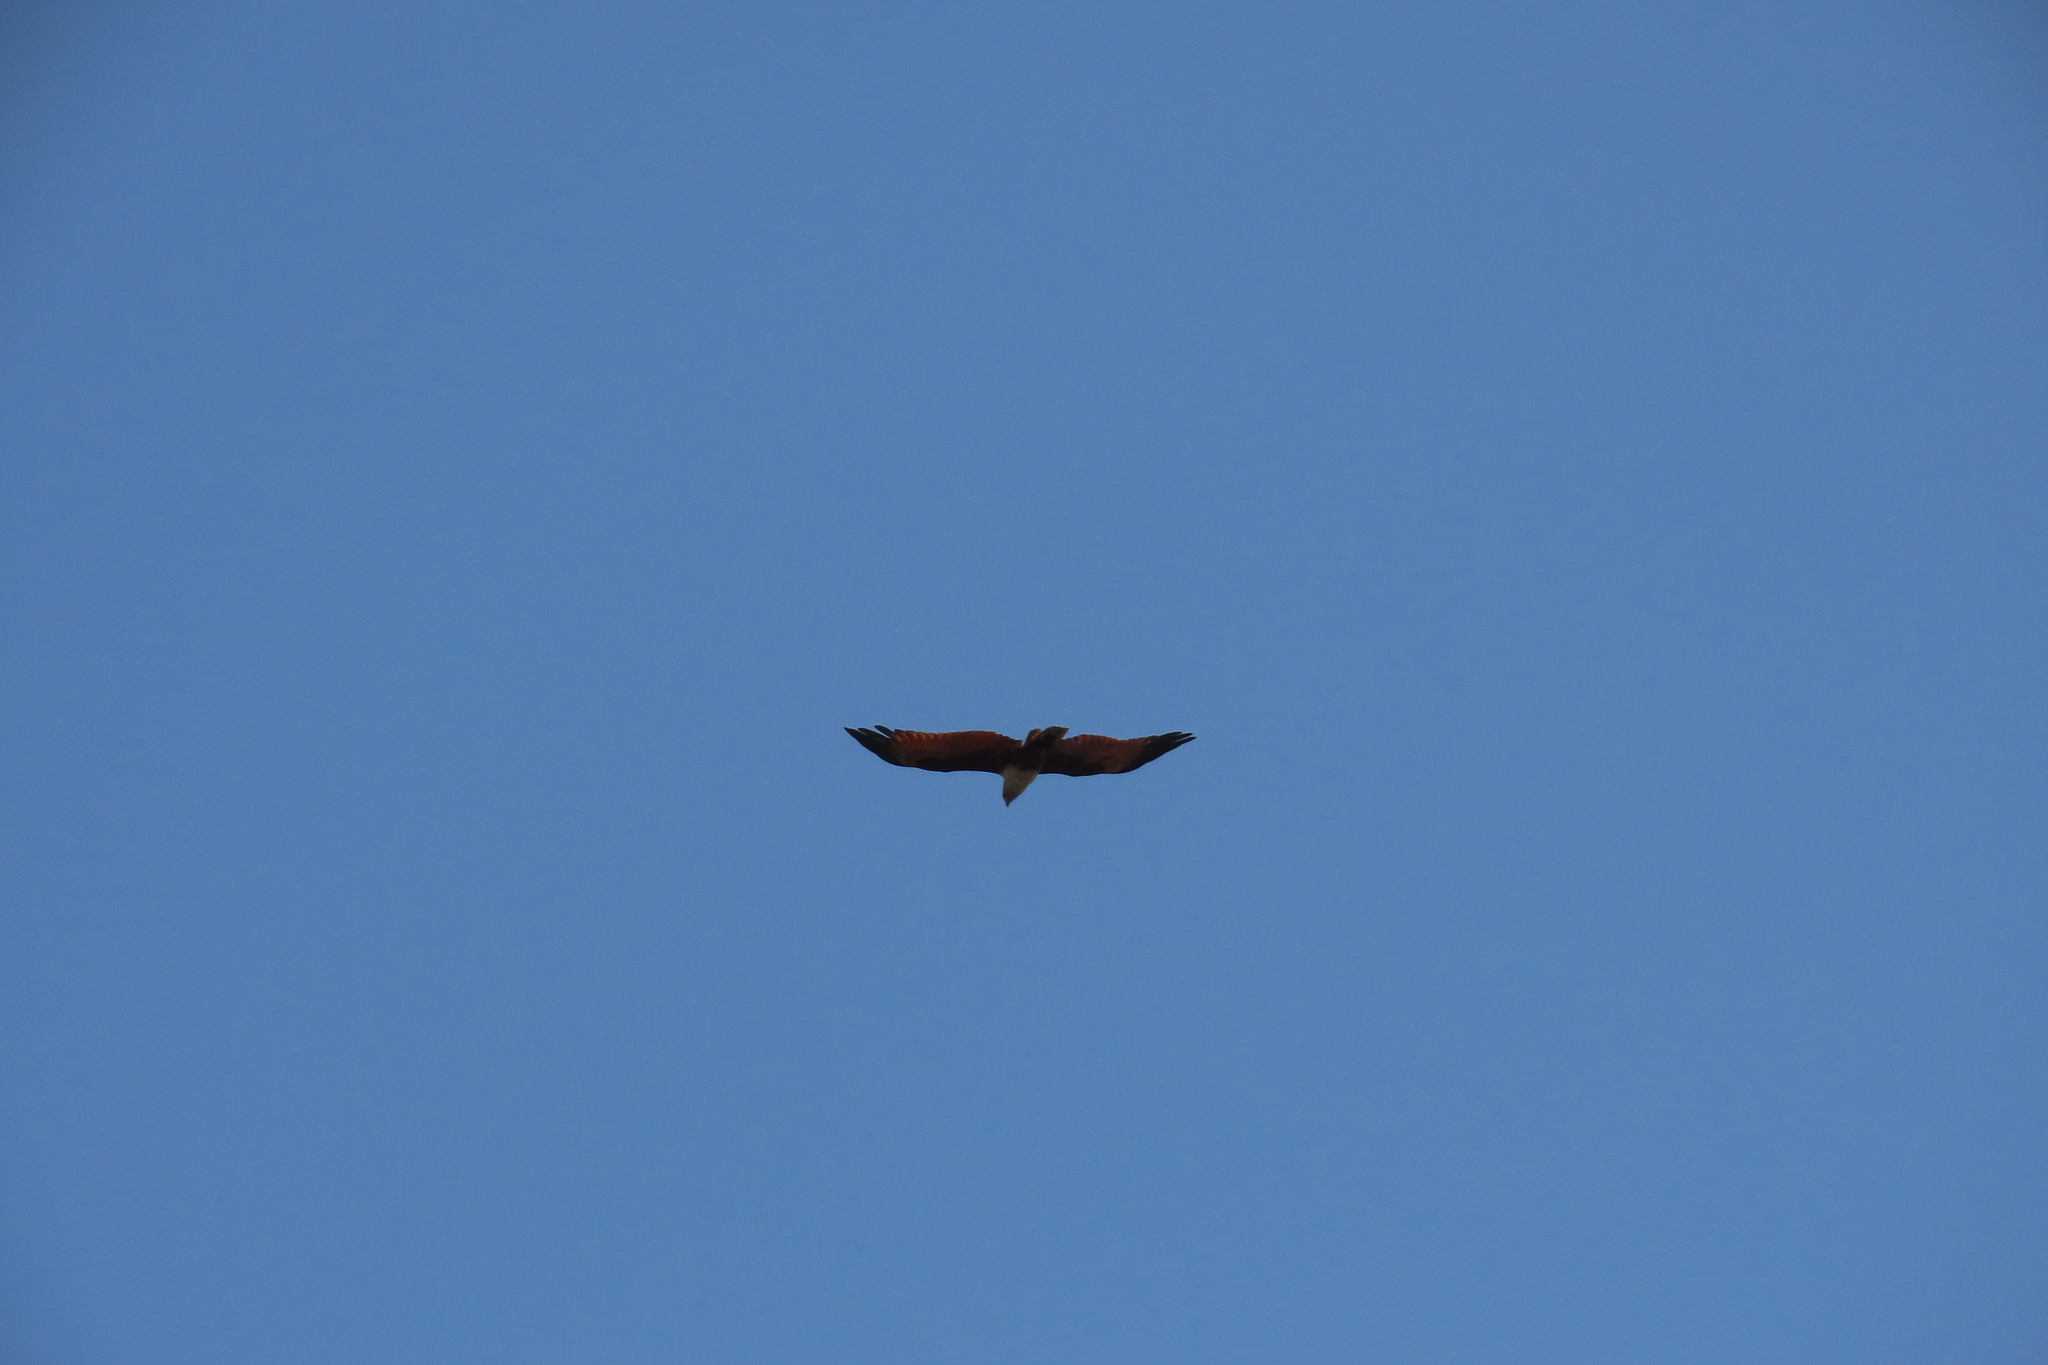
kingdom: Animalia
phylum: Chordata
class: Aves
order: Accipitriformes
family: Accipitridae
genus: Haliastur
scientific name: Haliastur indus
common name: Brahminy kite
